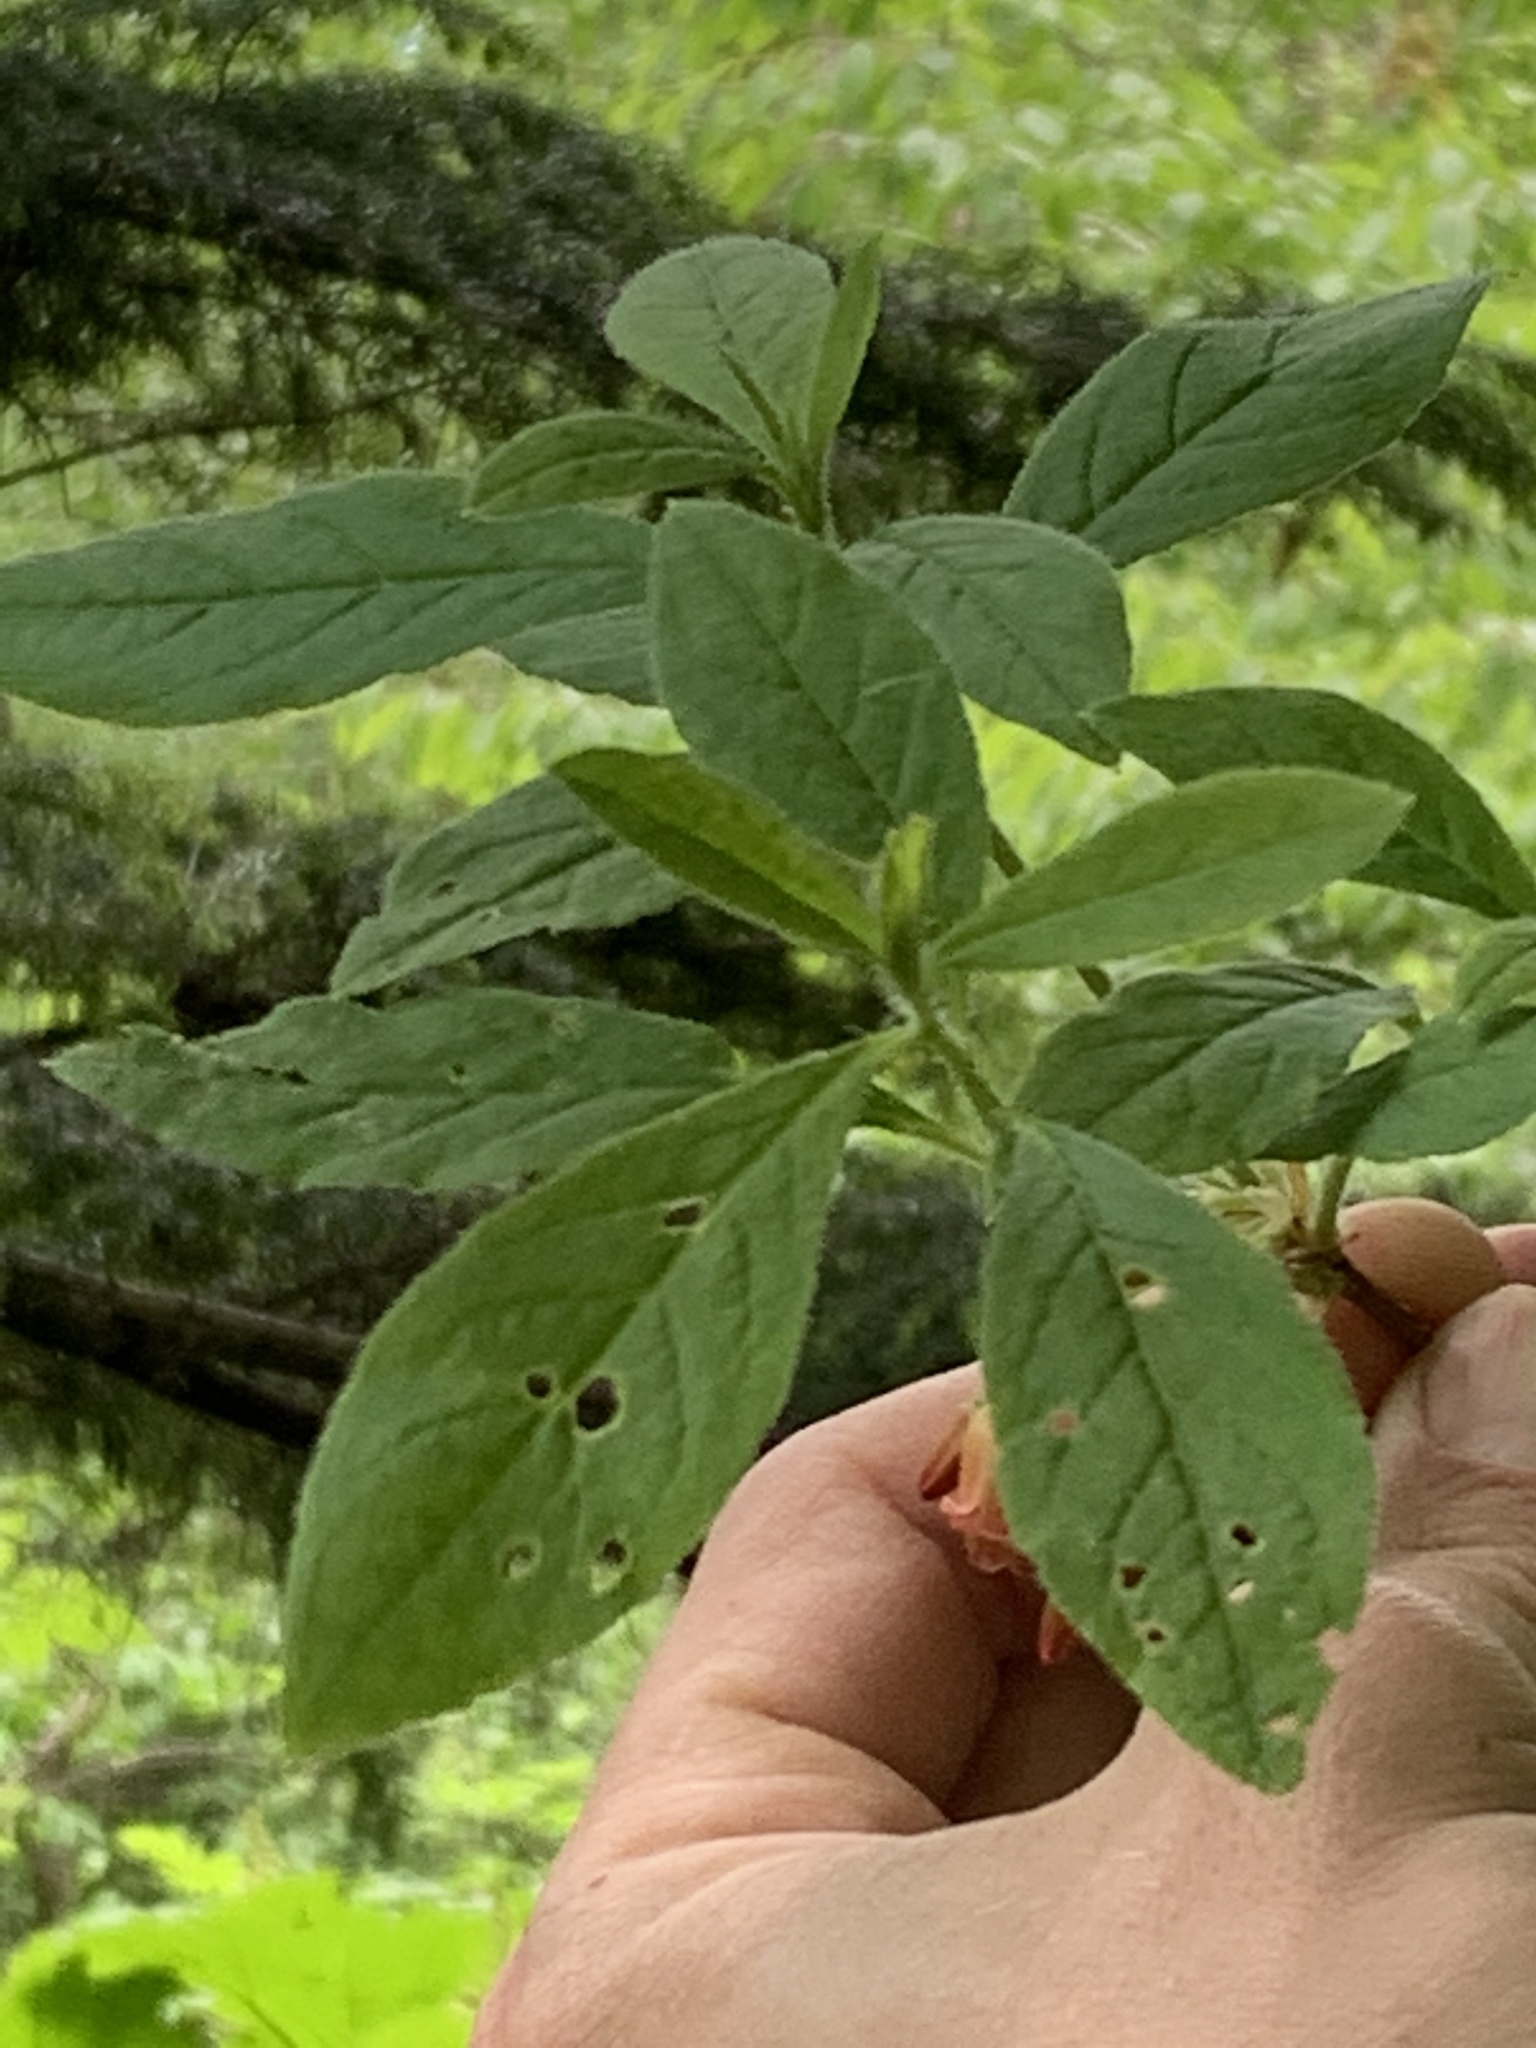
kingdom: Plantae
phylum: Tracheophyta
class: Magnoliopsida
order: Ericales
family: Ericaceae
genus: Rhododendron
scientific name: Rhododendron menziesii
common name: Pacific menziesia
